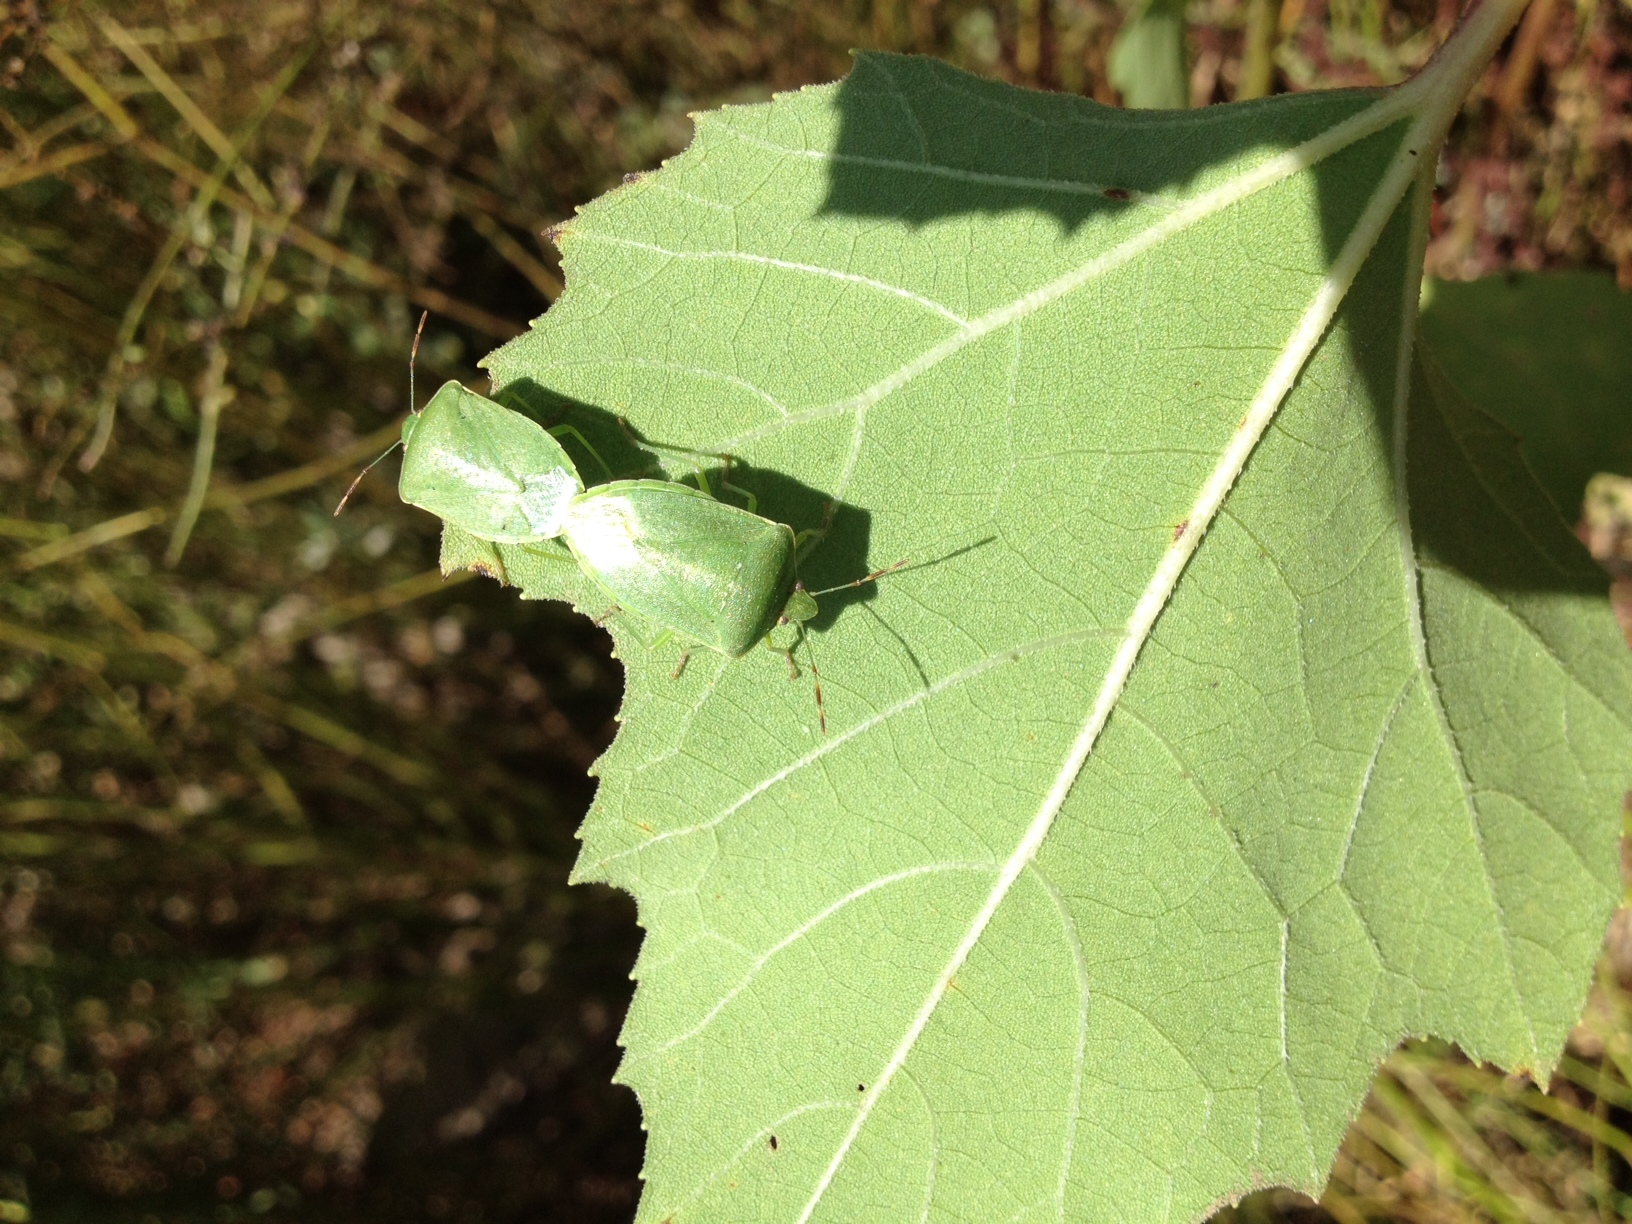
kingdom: Animalia
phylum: Arthropoda
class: Insecta
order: Hemiptera
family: Pentatomidae
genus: Nezara
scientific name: Nezara viridula
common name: Southern green stink bug
